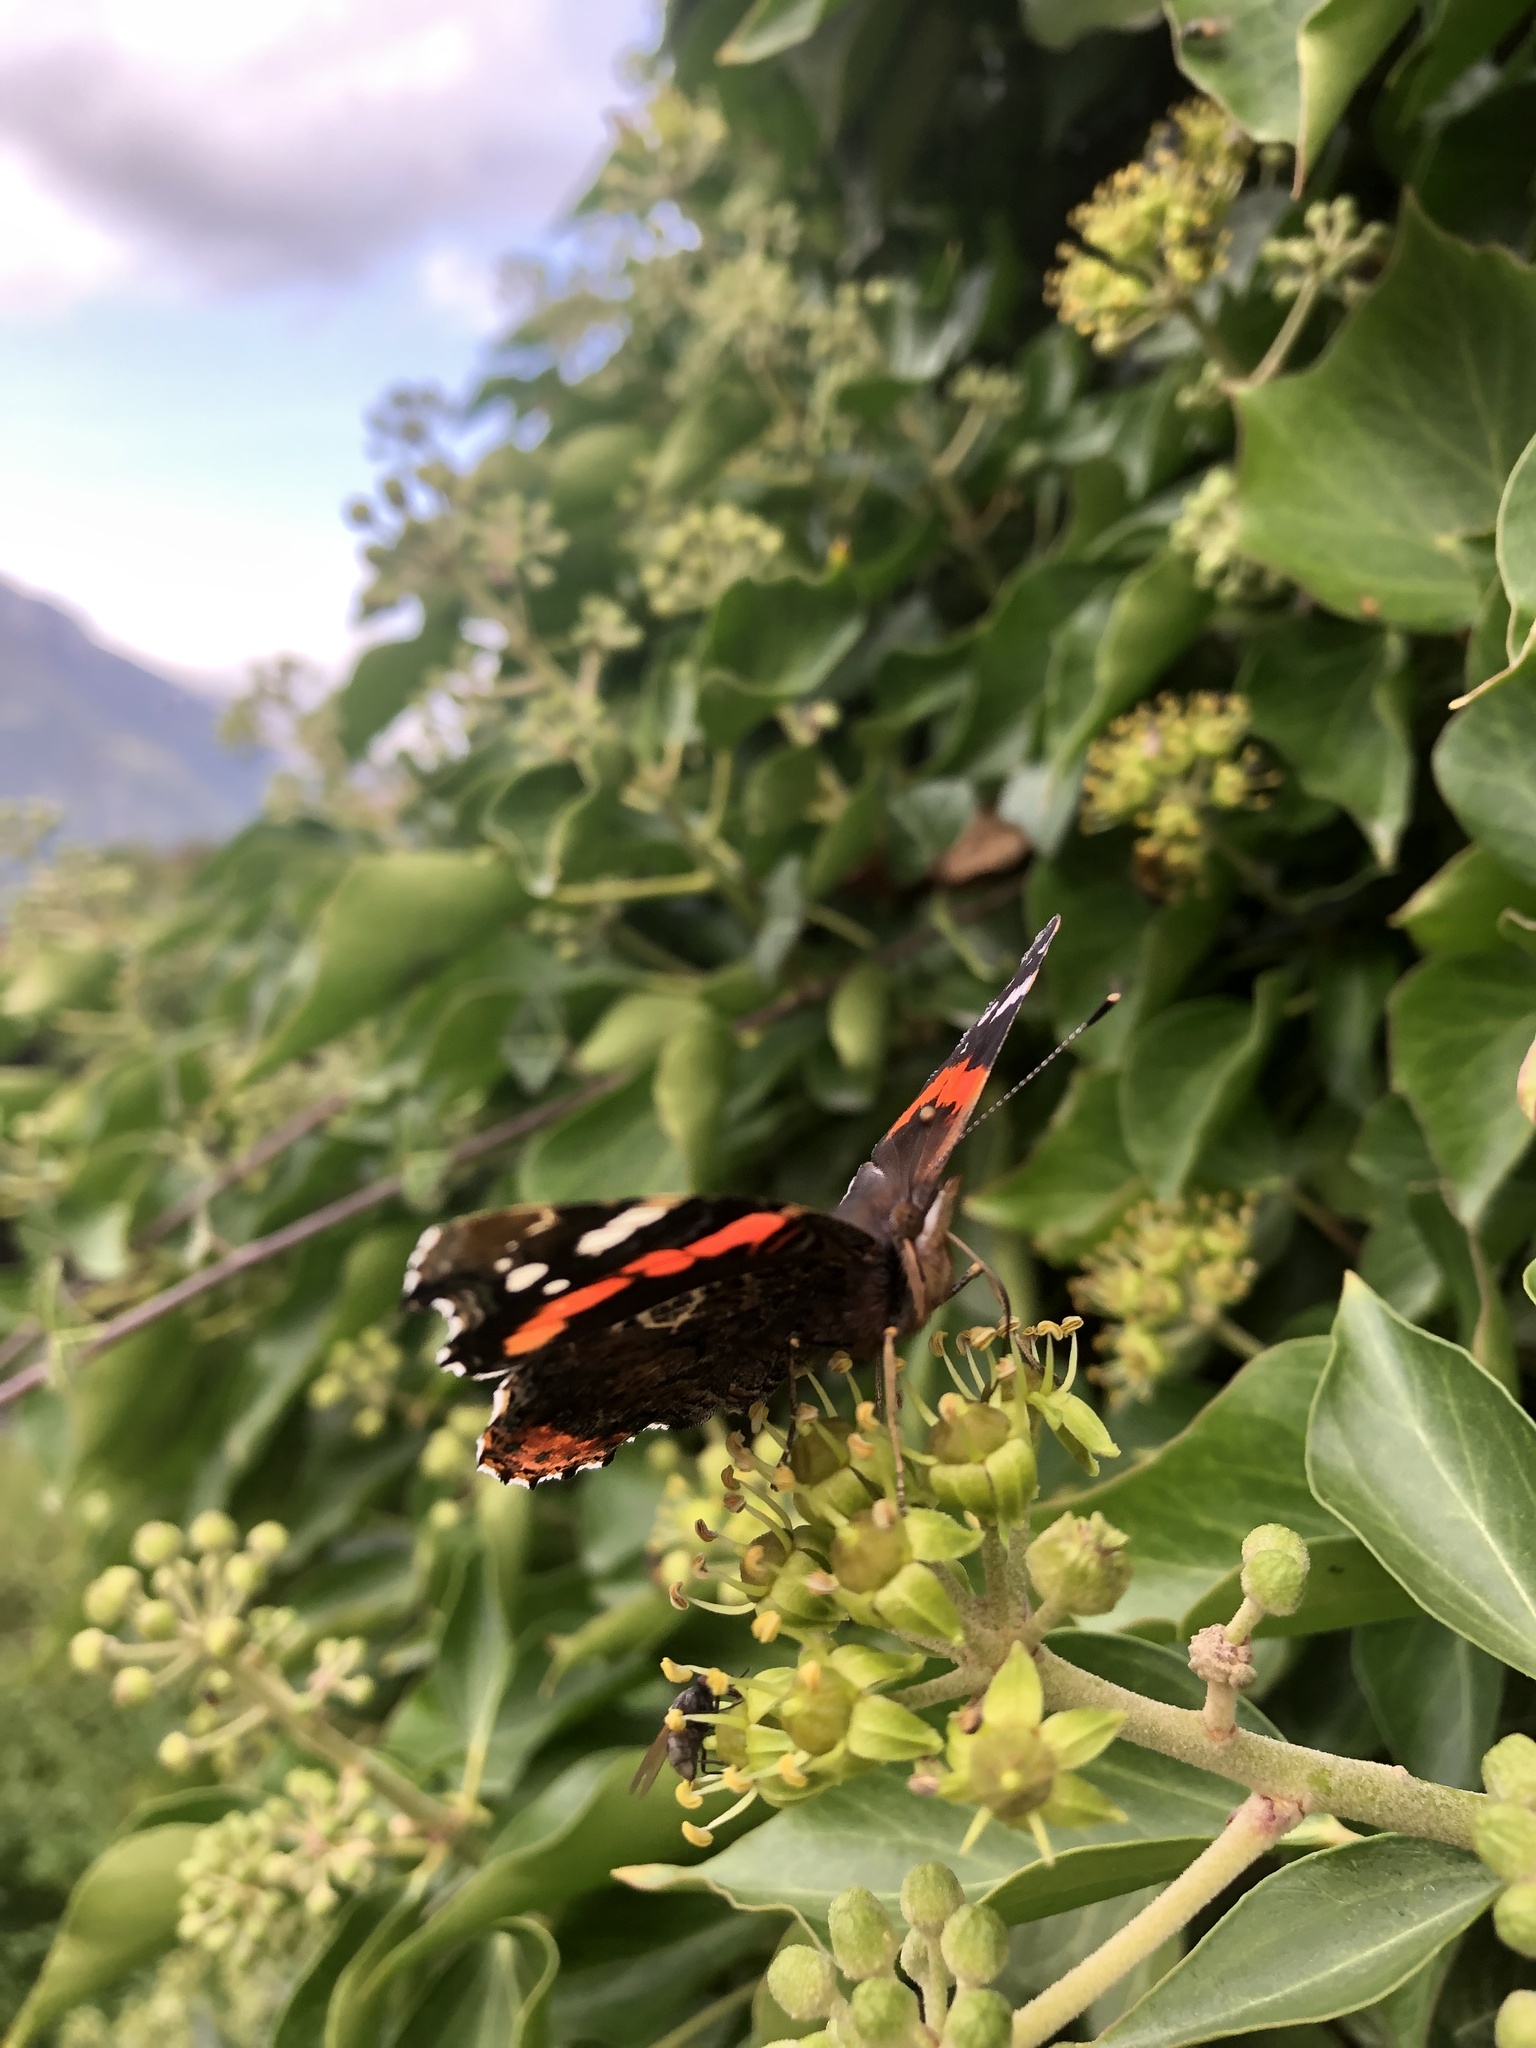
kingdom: Animalia
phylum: Arthropoda
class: Insecta
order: Lepidoptera
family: Nymphalidae
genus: Vanessa
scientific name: Vanessa atalanta
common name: Red admiral
